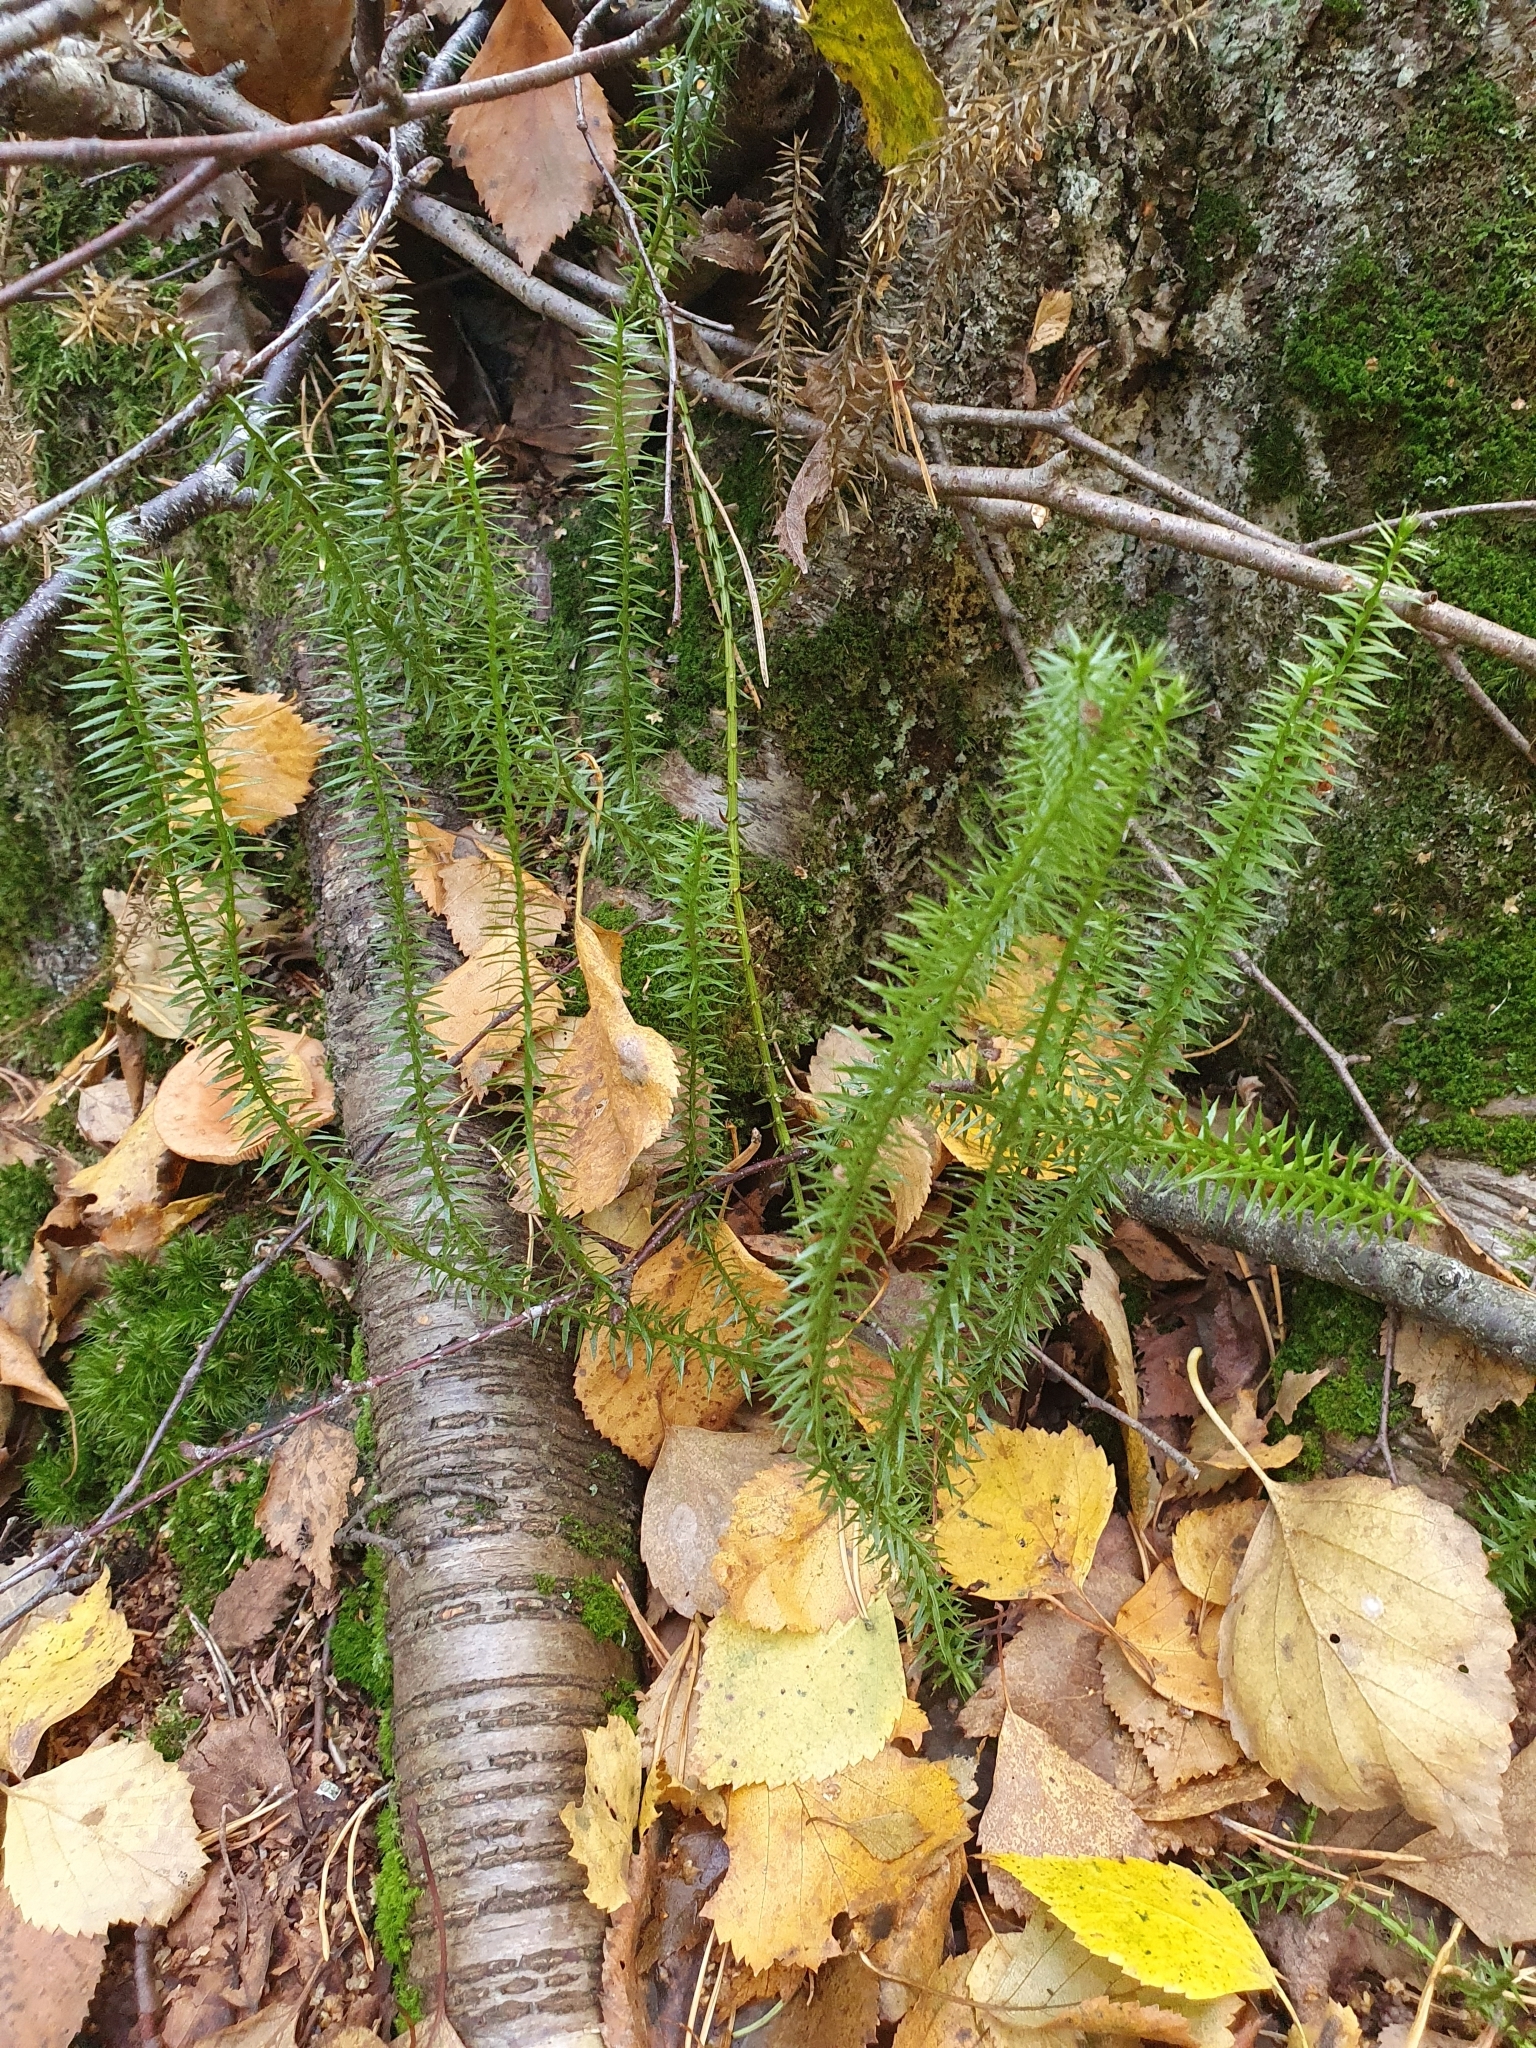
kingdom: Plantae
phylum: Tracheophyta
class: Lycopodiopsida
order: Lycopodiales
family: Lycopodiaceae
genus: Spinulum
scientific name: Spinulum annotinum
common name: Interrupted club-moss
